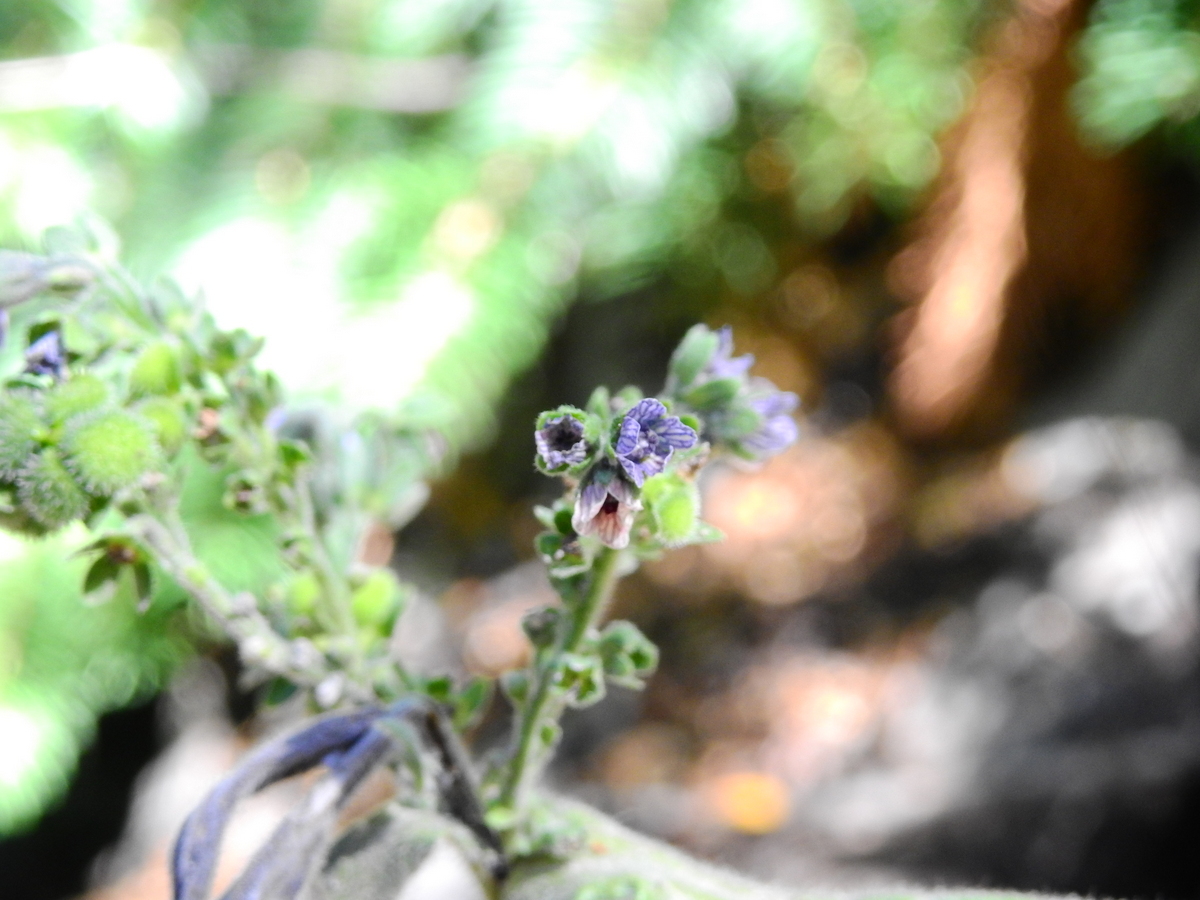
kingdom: Plantae
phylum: Tracheophyta
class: Magnoliopsida
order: Boraginales
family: Boraginaceae
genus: Cynoglossum
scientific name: Cynoglossum creticum
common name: Blue hound's tongue
